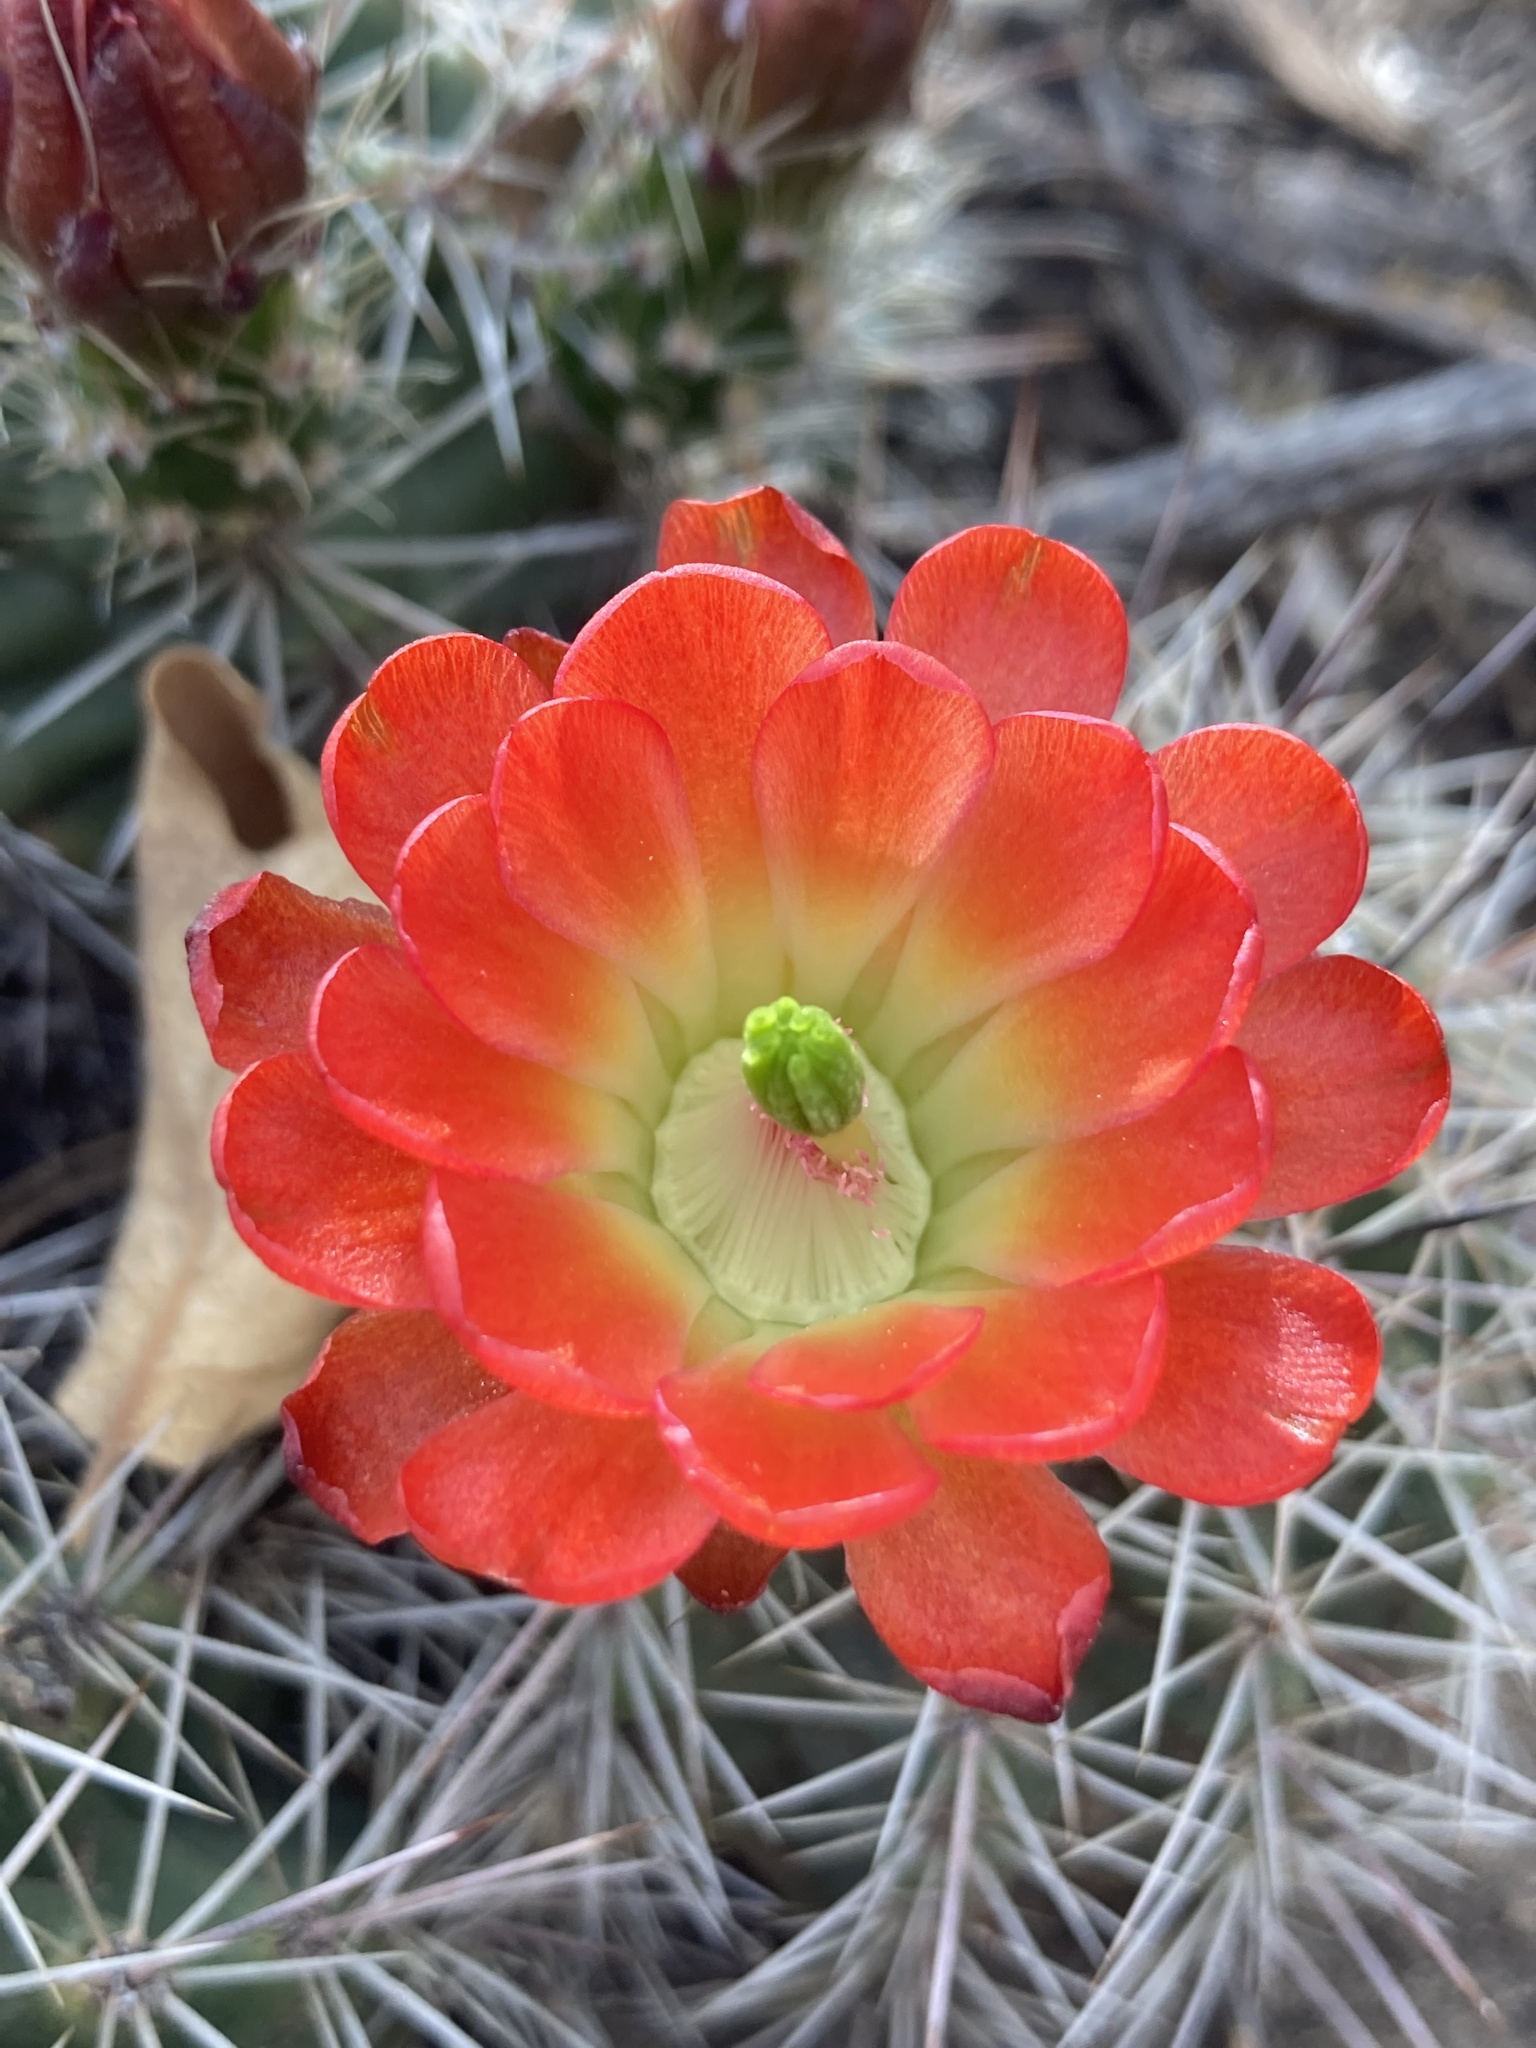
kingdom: Plantae
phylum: Tracheophyta
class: Magnoliopsida
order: Caryophyllales
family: Cactaceae
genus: Echinocereus
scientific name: Echinocereus coccineus
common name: Scarlet hedgehog cactus
